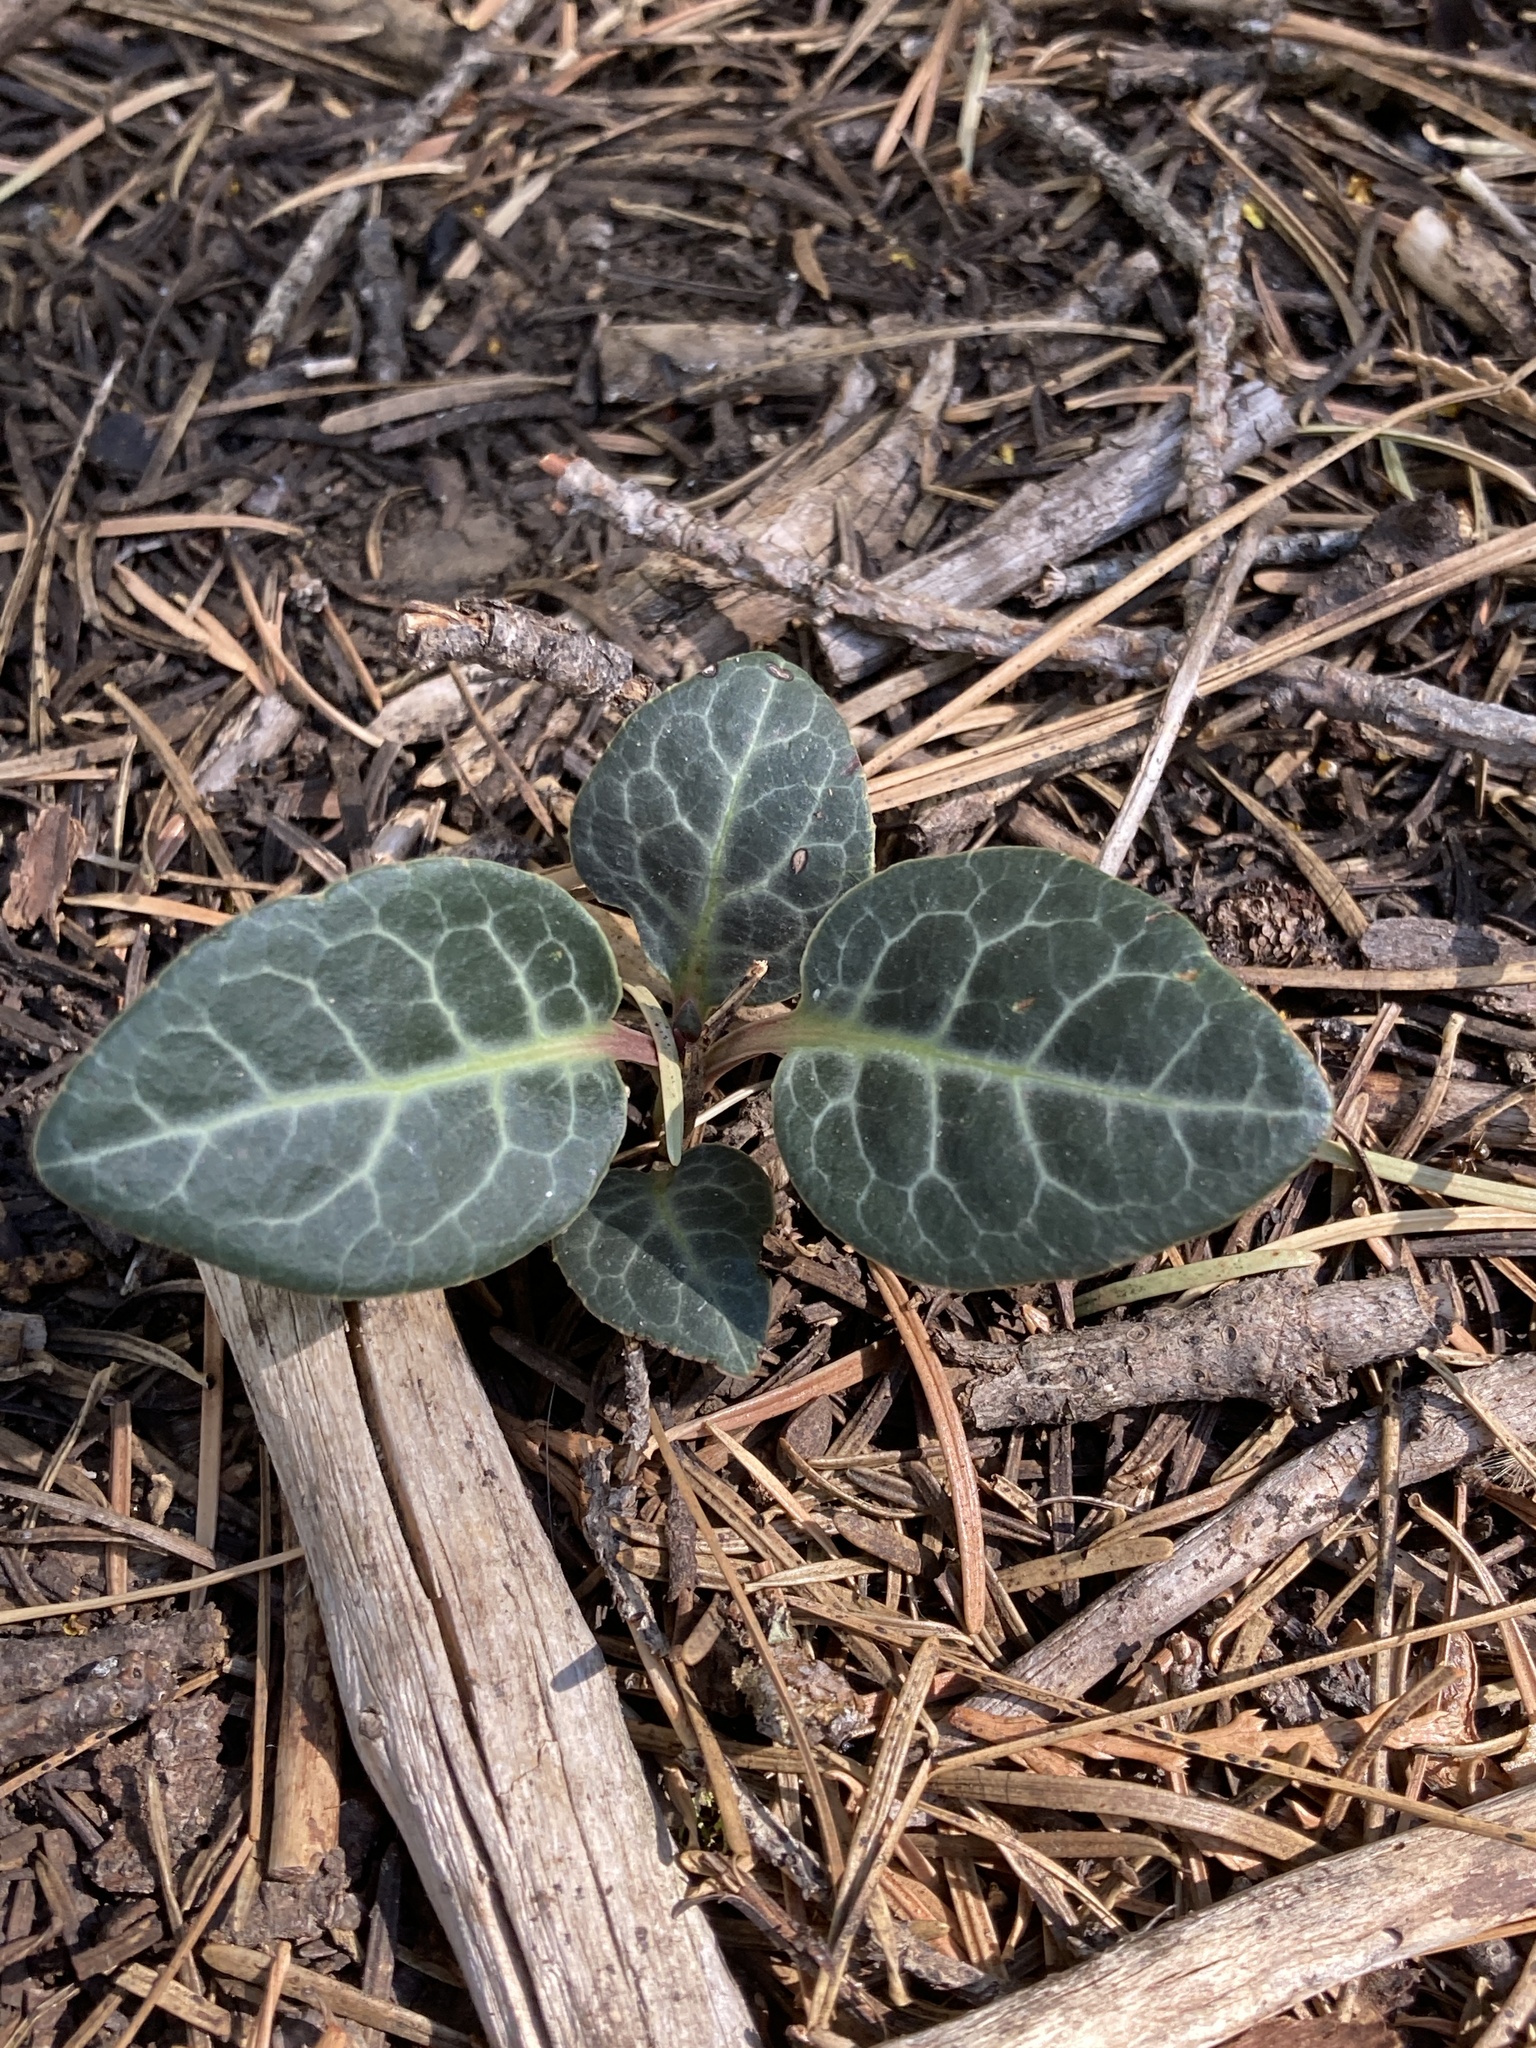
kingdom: Plantae
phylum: Tracheophyta
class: Magnoliopsida
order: Ericales
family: Ericaceae
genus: Pyrola
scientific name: Pyrola picta
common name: White-vein wintergreen
